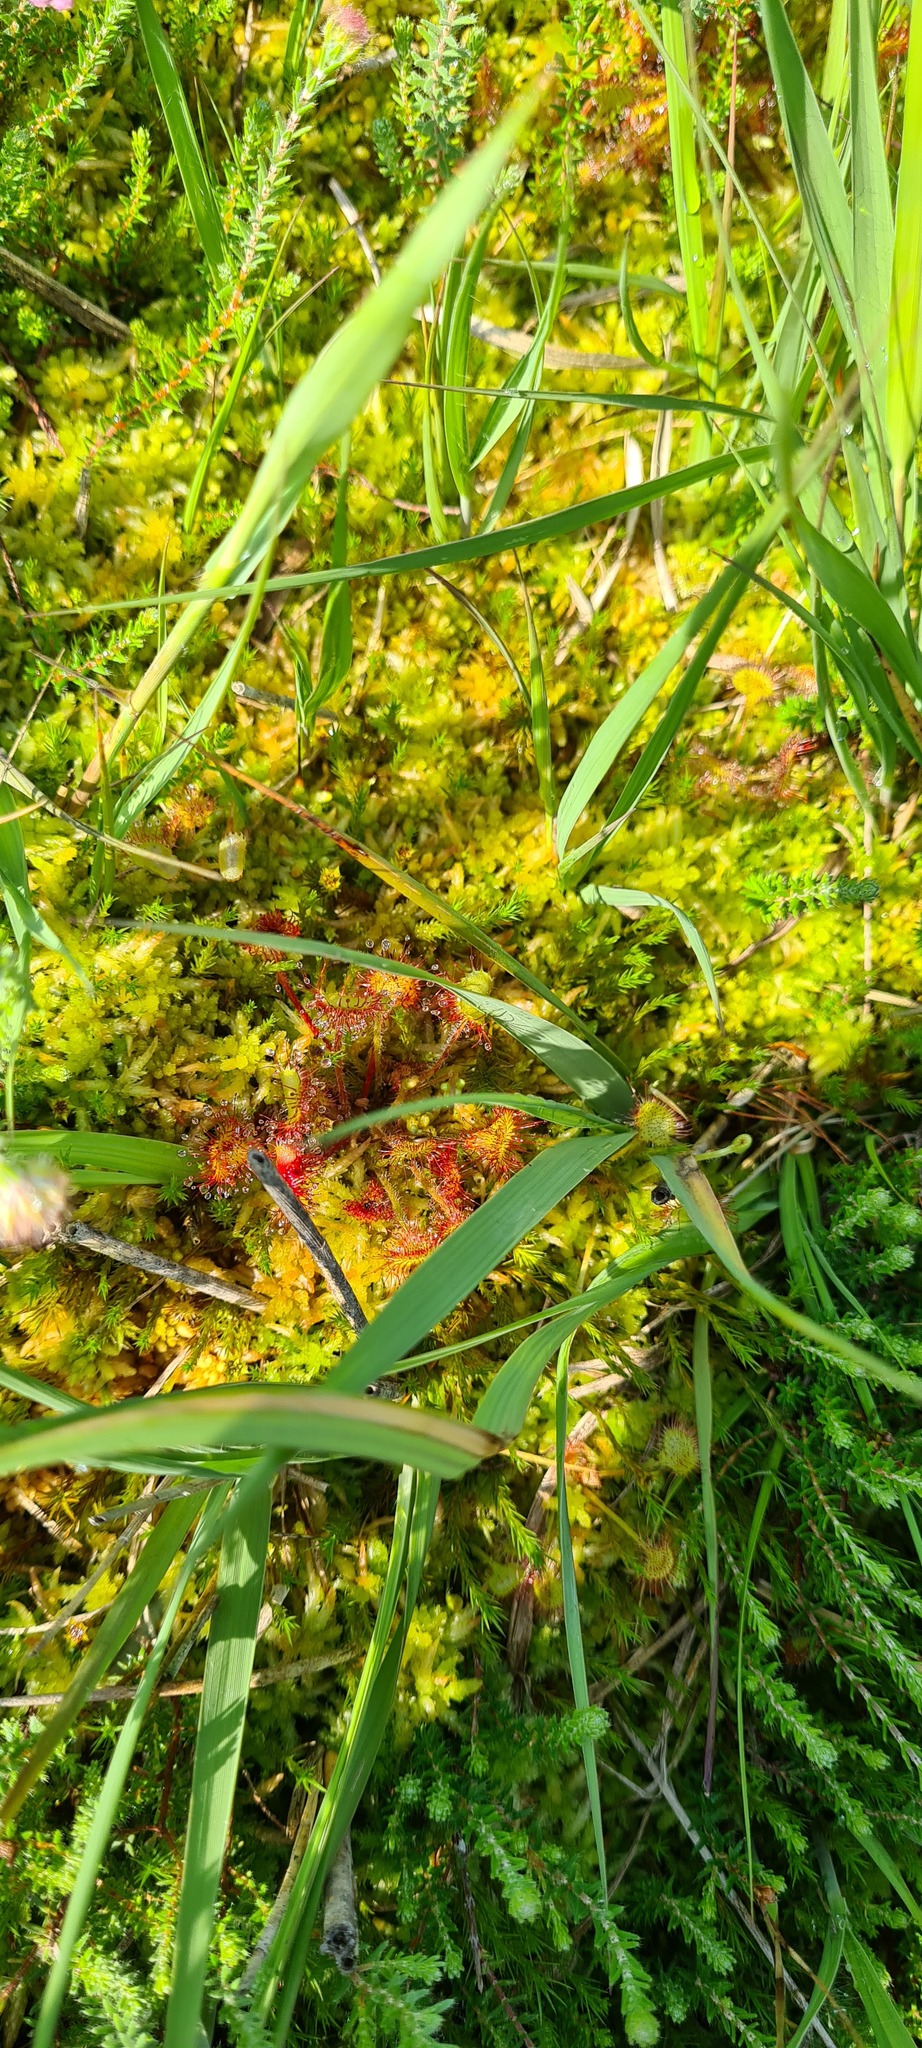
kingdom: Plantae
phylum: Tracheophyta
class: Magnoliopsida
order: Caryophyllales
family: Droseraceae
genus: Drosera
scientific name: Drosera rotundifolia
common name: Round-leaved sundew
